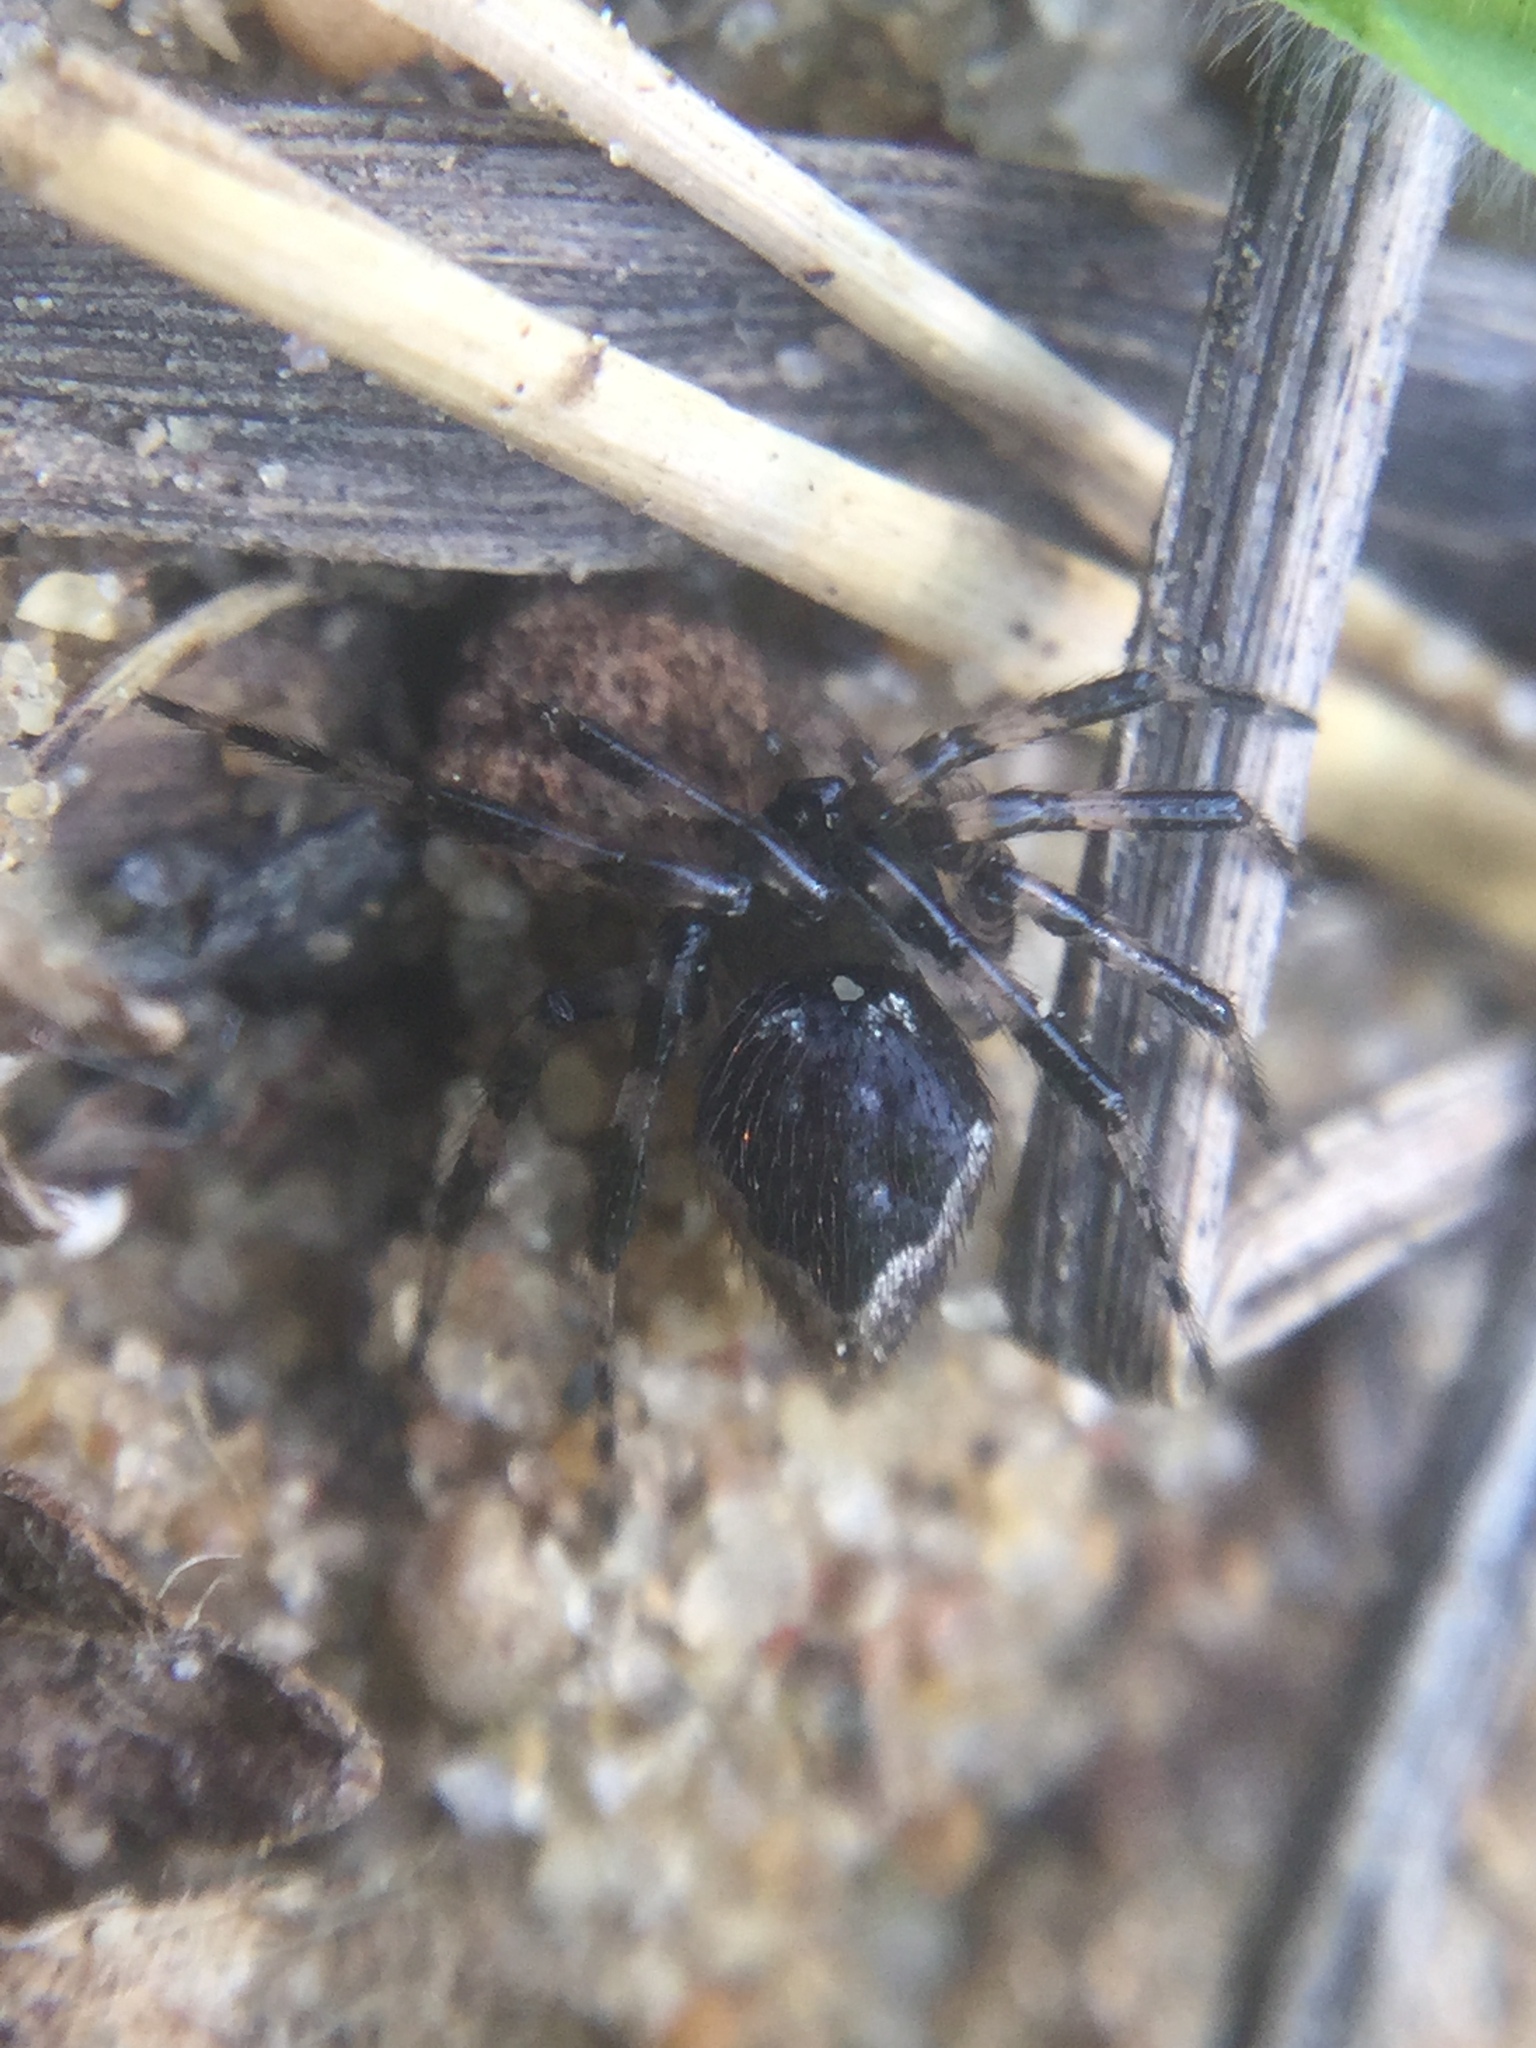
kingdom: Animalia
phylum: Arthropoda
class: Arachnida
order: Araneae
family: Theridiidae
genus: Euryopis
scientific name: Euryopis funebris
